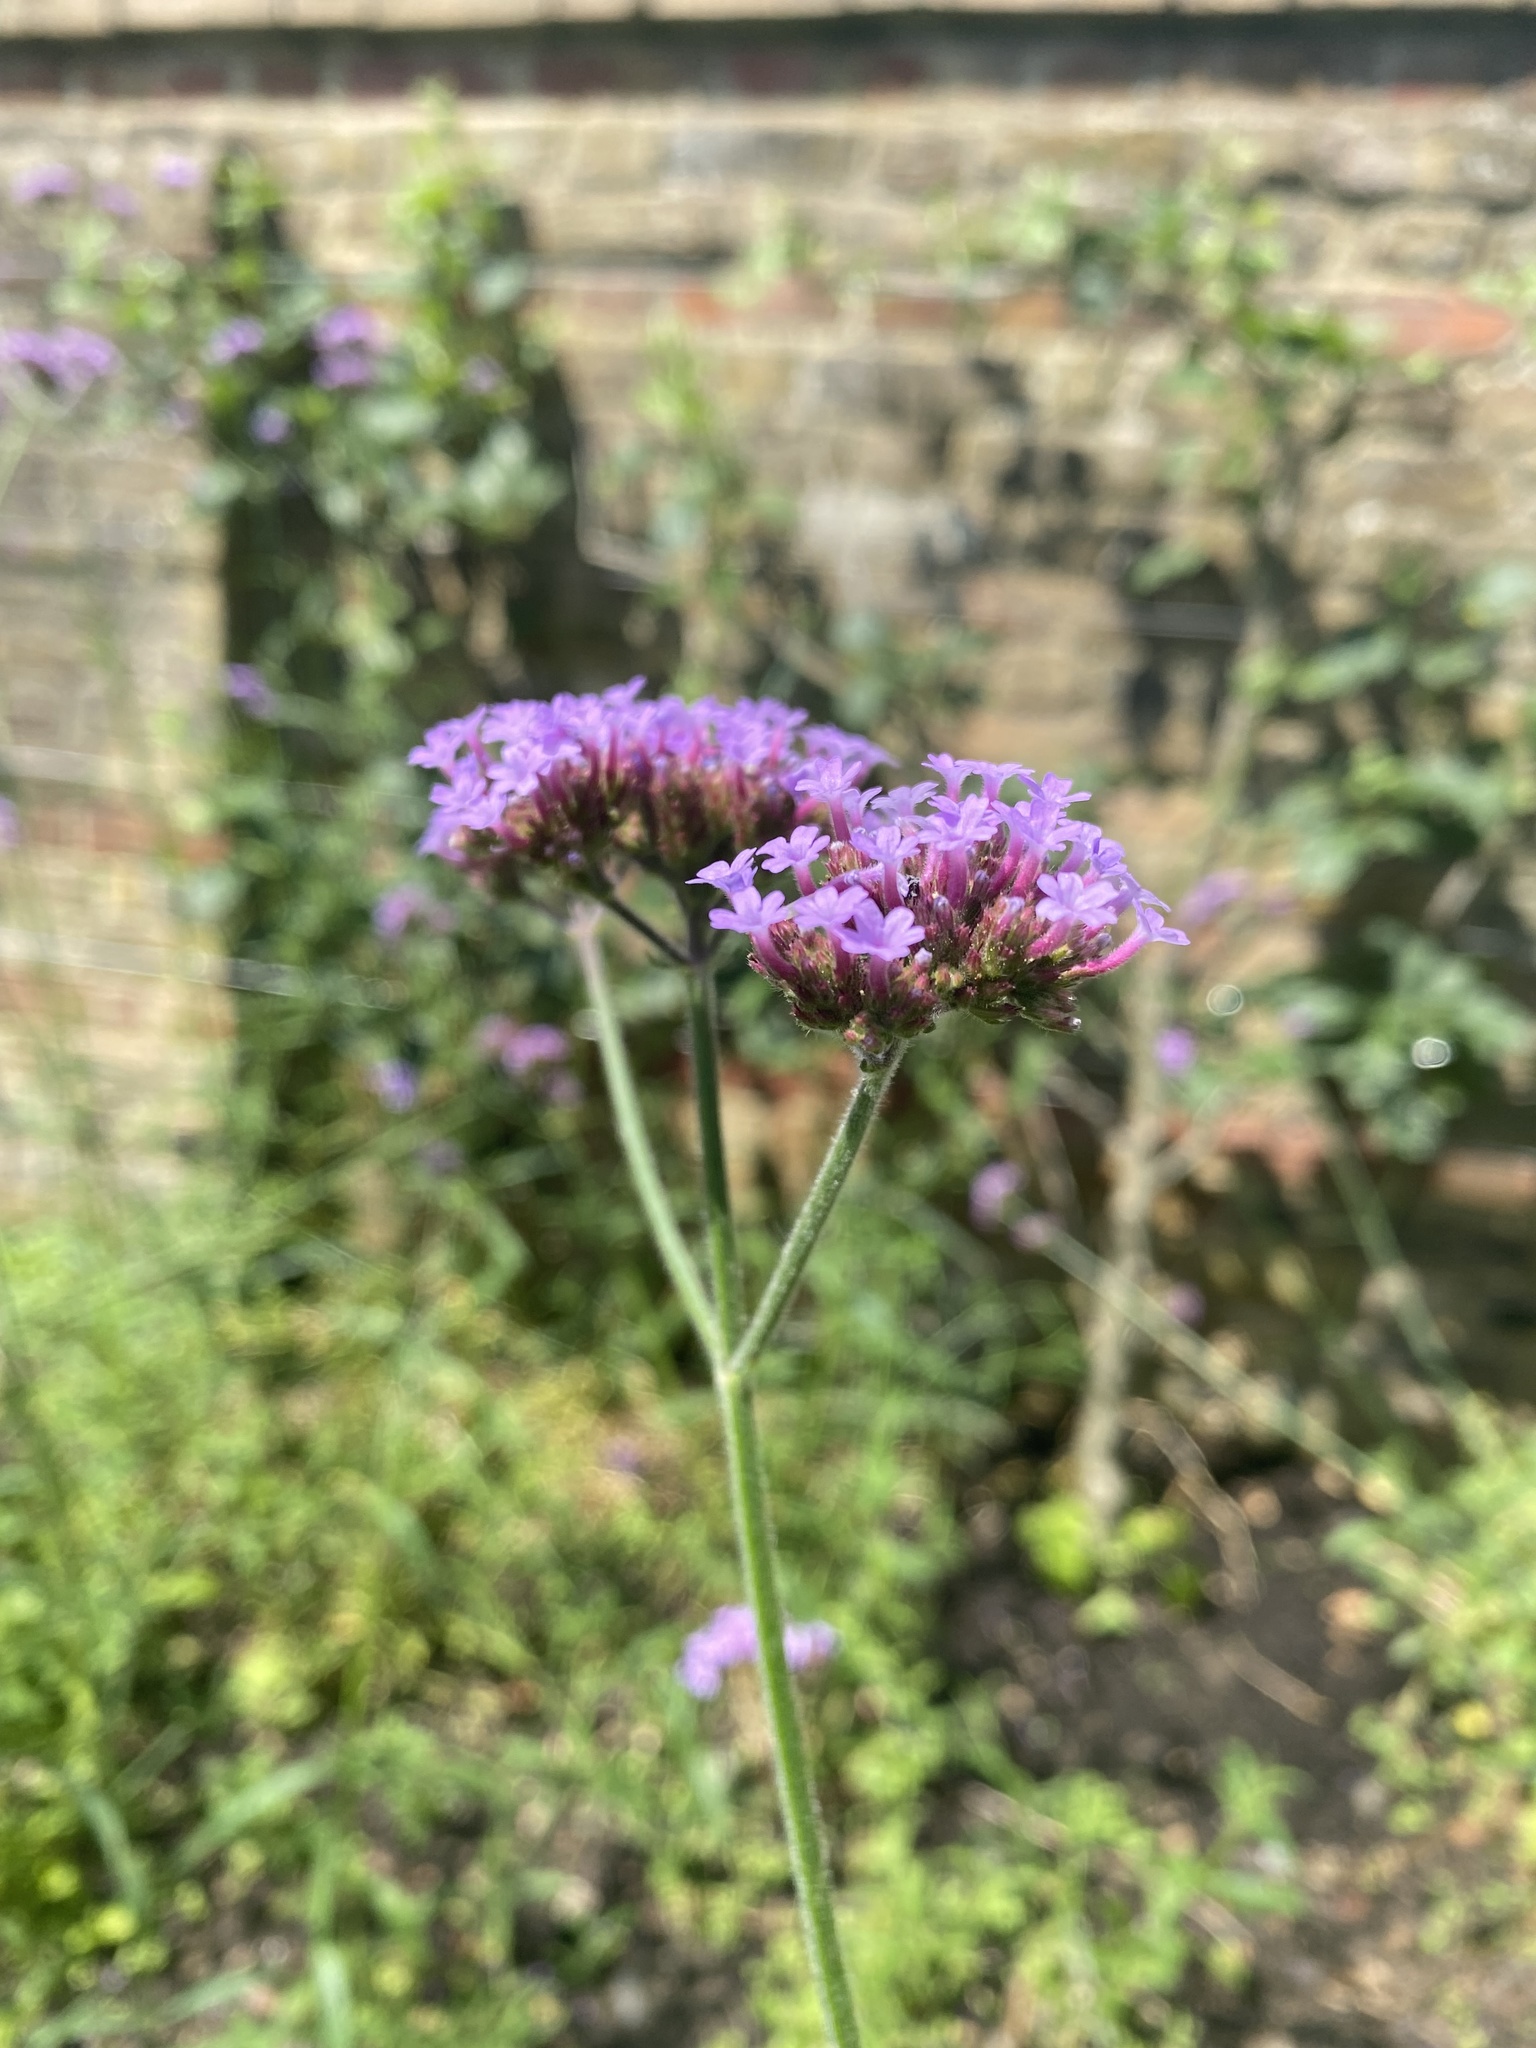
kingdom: Plantae
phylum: Tracheophyta
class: Magnoliopsida
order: Lamiales
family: Verbenaceae
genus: Verbena
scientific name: Verbena bonariensis
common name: Purpletop vervain
